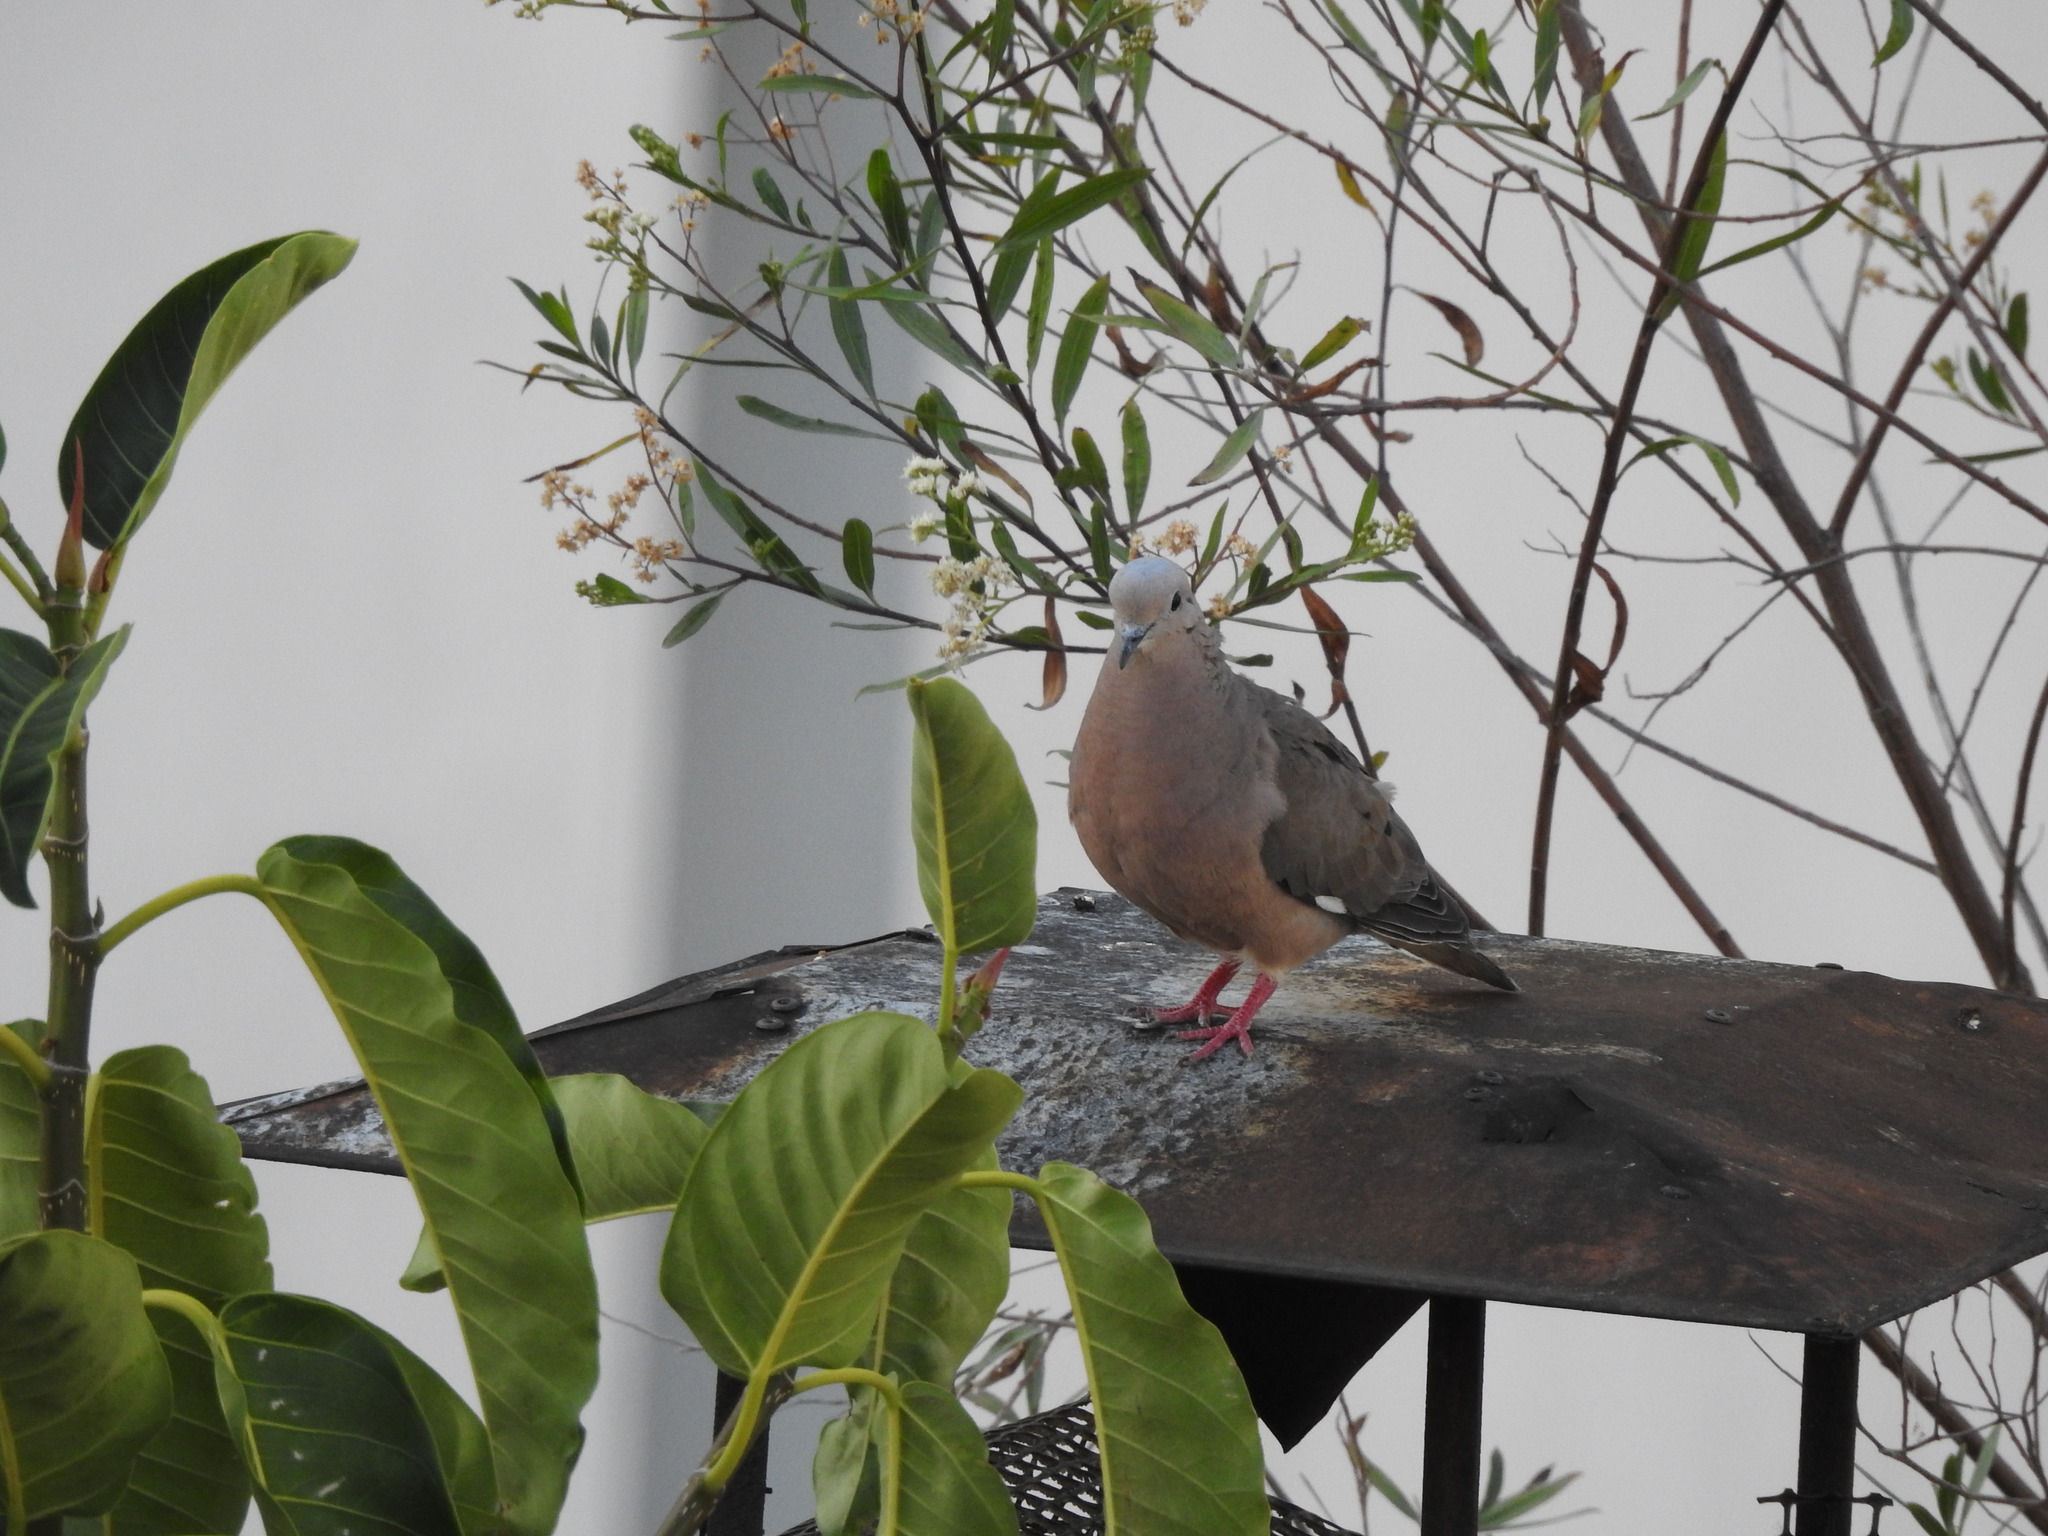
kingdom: Animalia
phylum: Chordata
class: Aves
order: Columbiformes
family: Columbidae
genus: Zenaida
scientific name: Zenaida auriculata
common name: Eared dove
